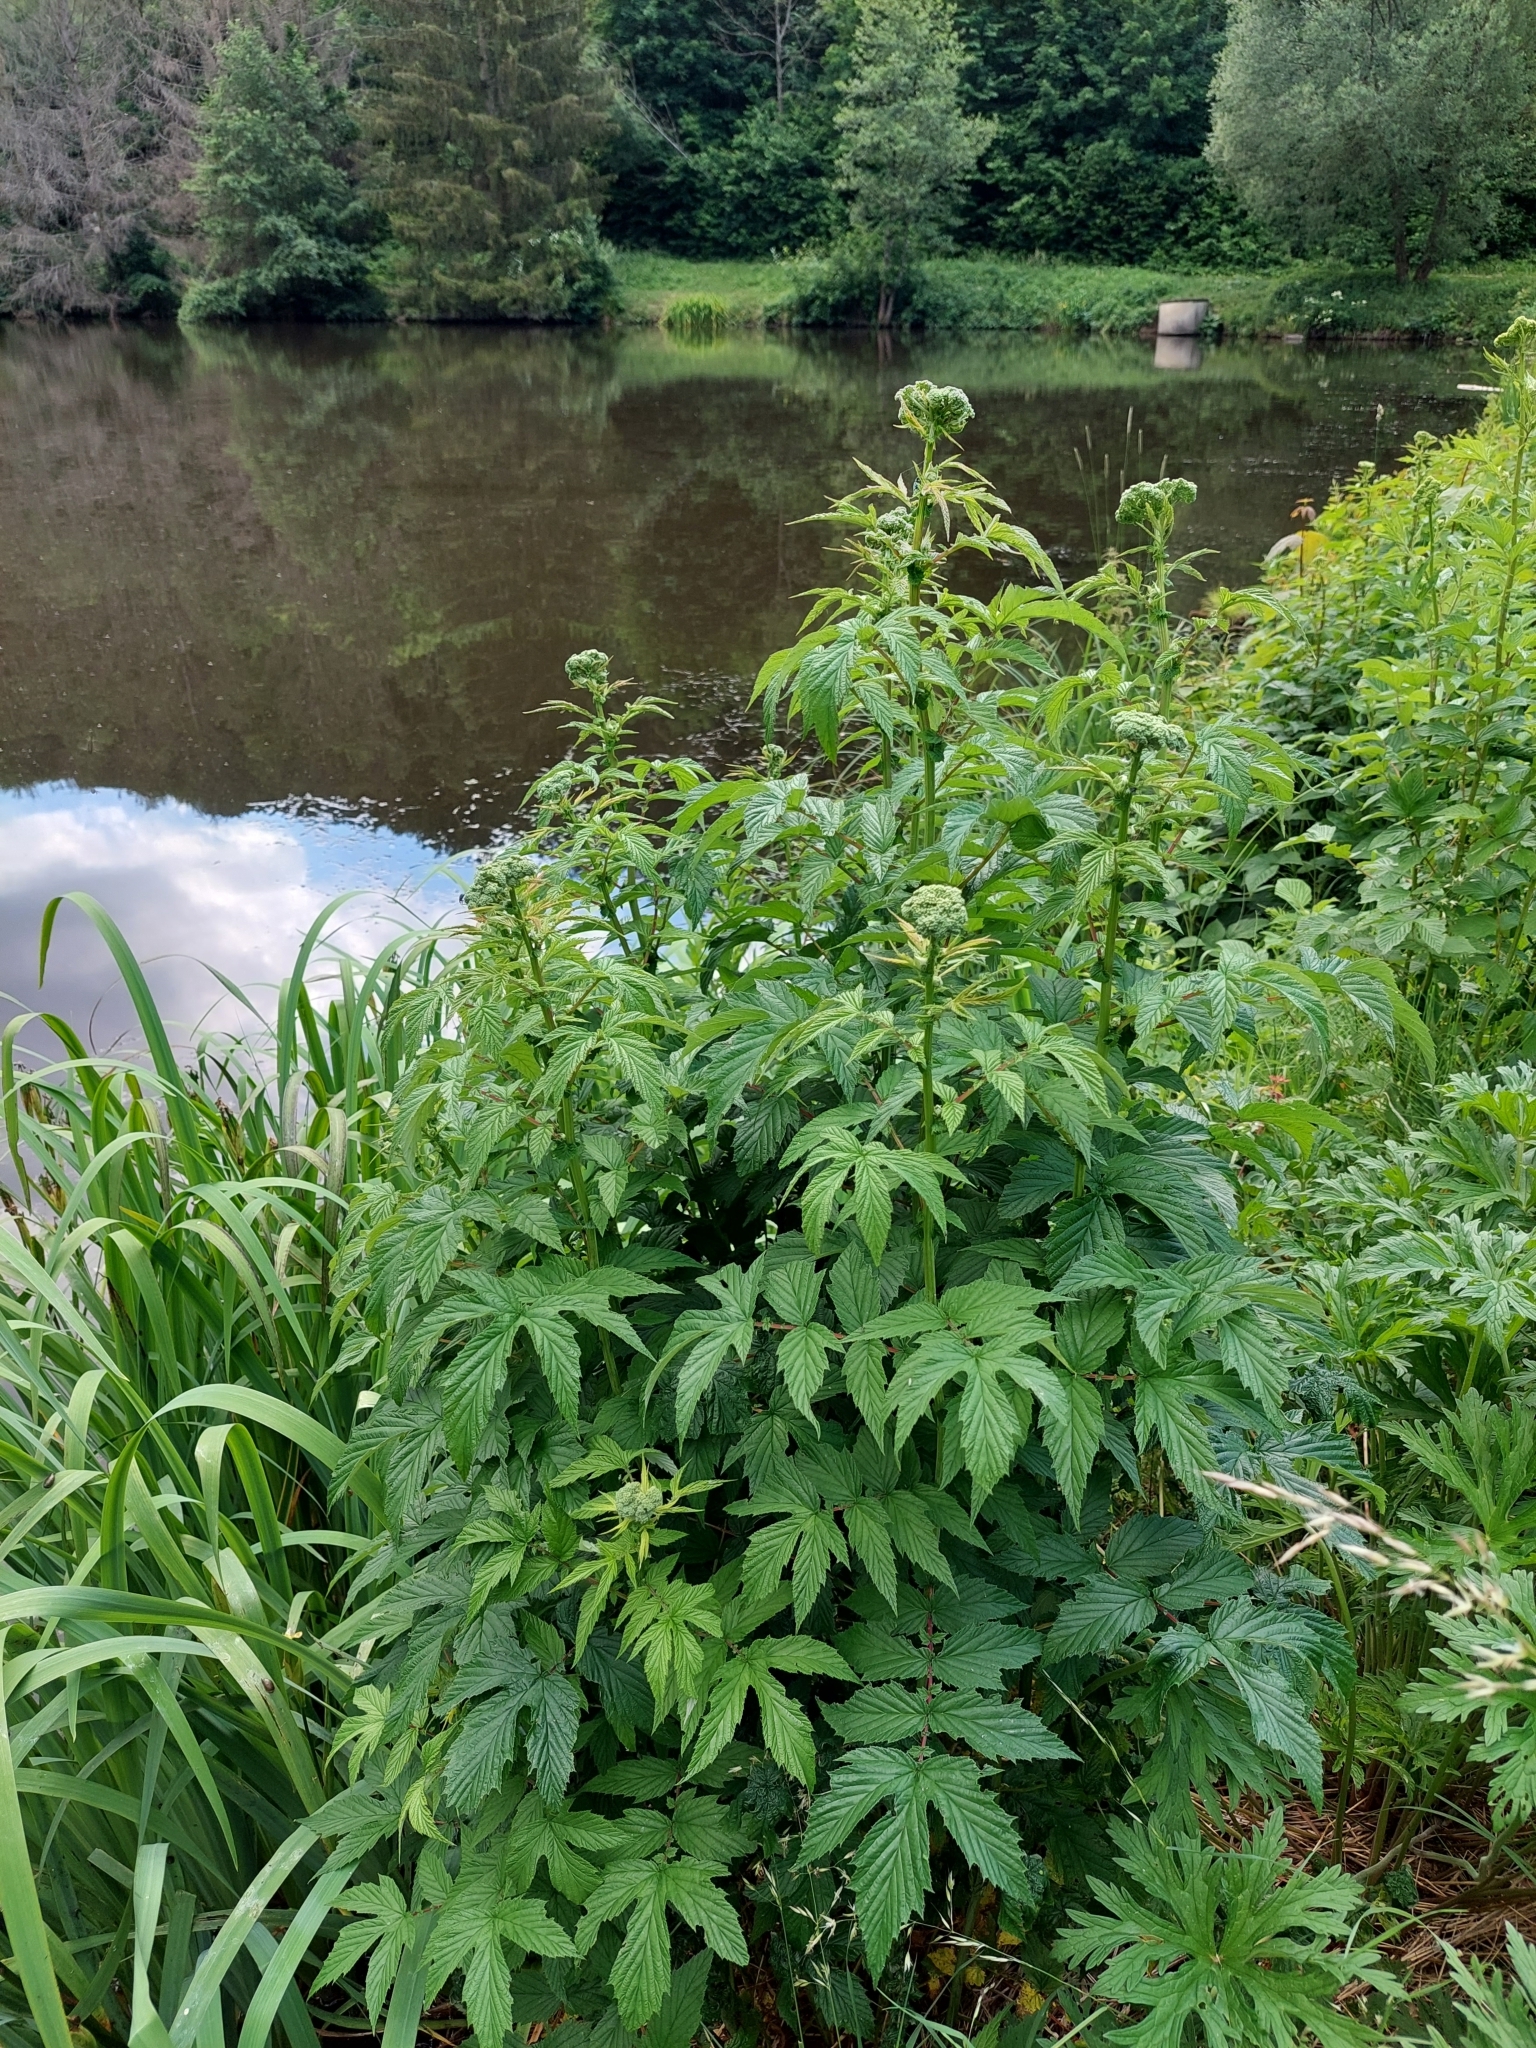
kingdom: Plantae
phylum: Tracheophyta
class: Magnoliopsida
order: Rosales
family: Rosaceae
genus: Filipendula
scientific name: Filipendula ulmaria
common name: Meadowsweet
